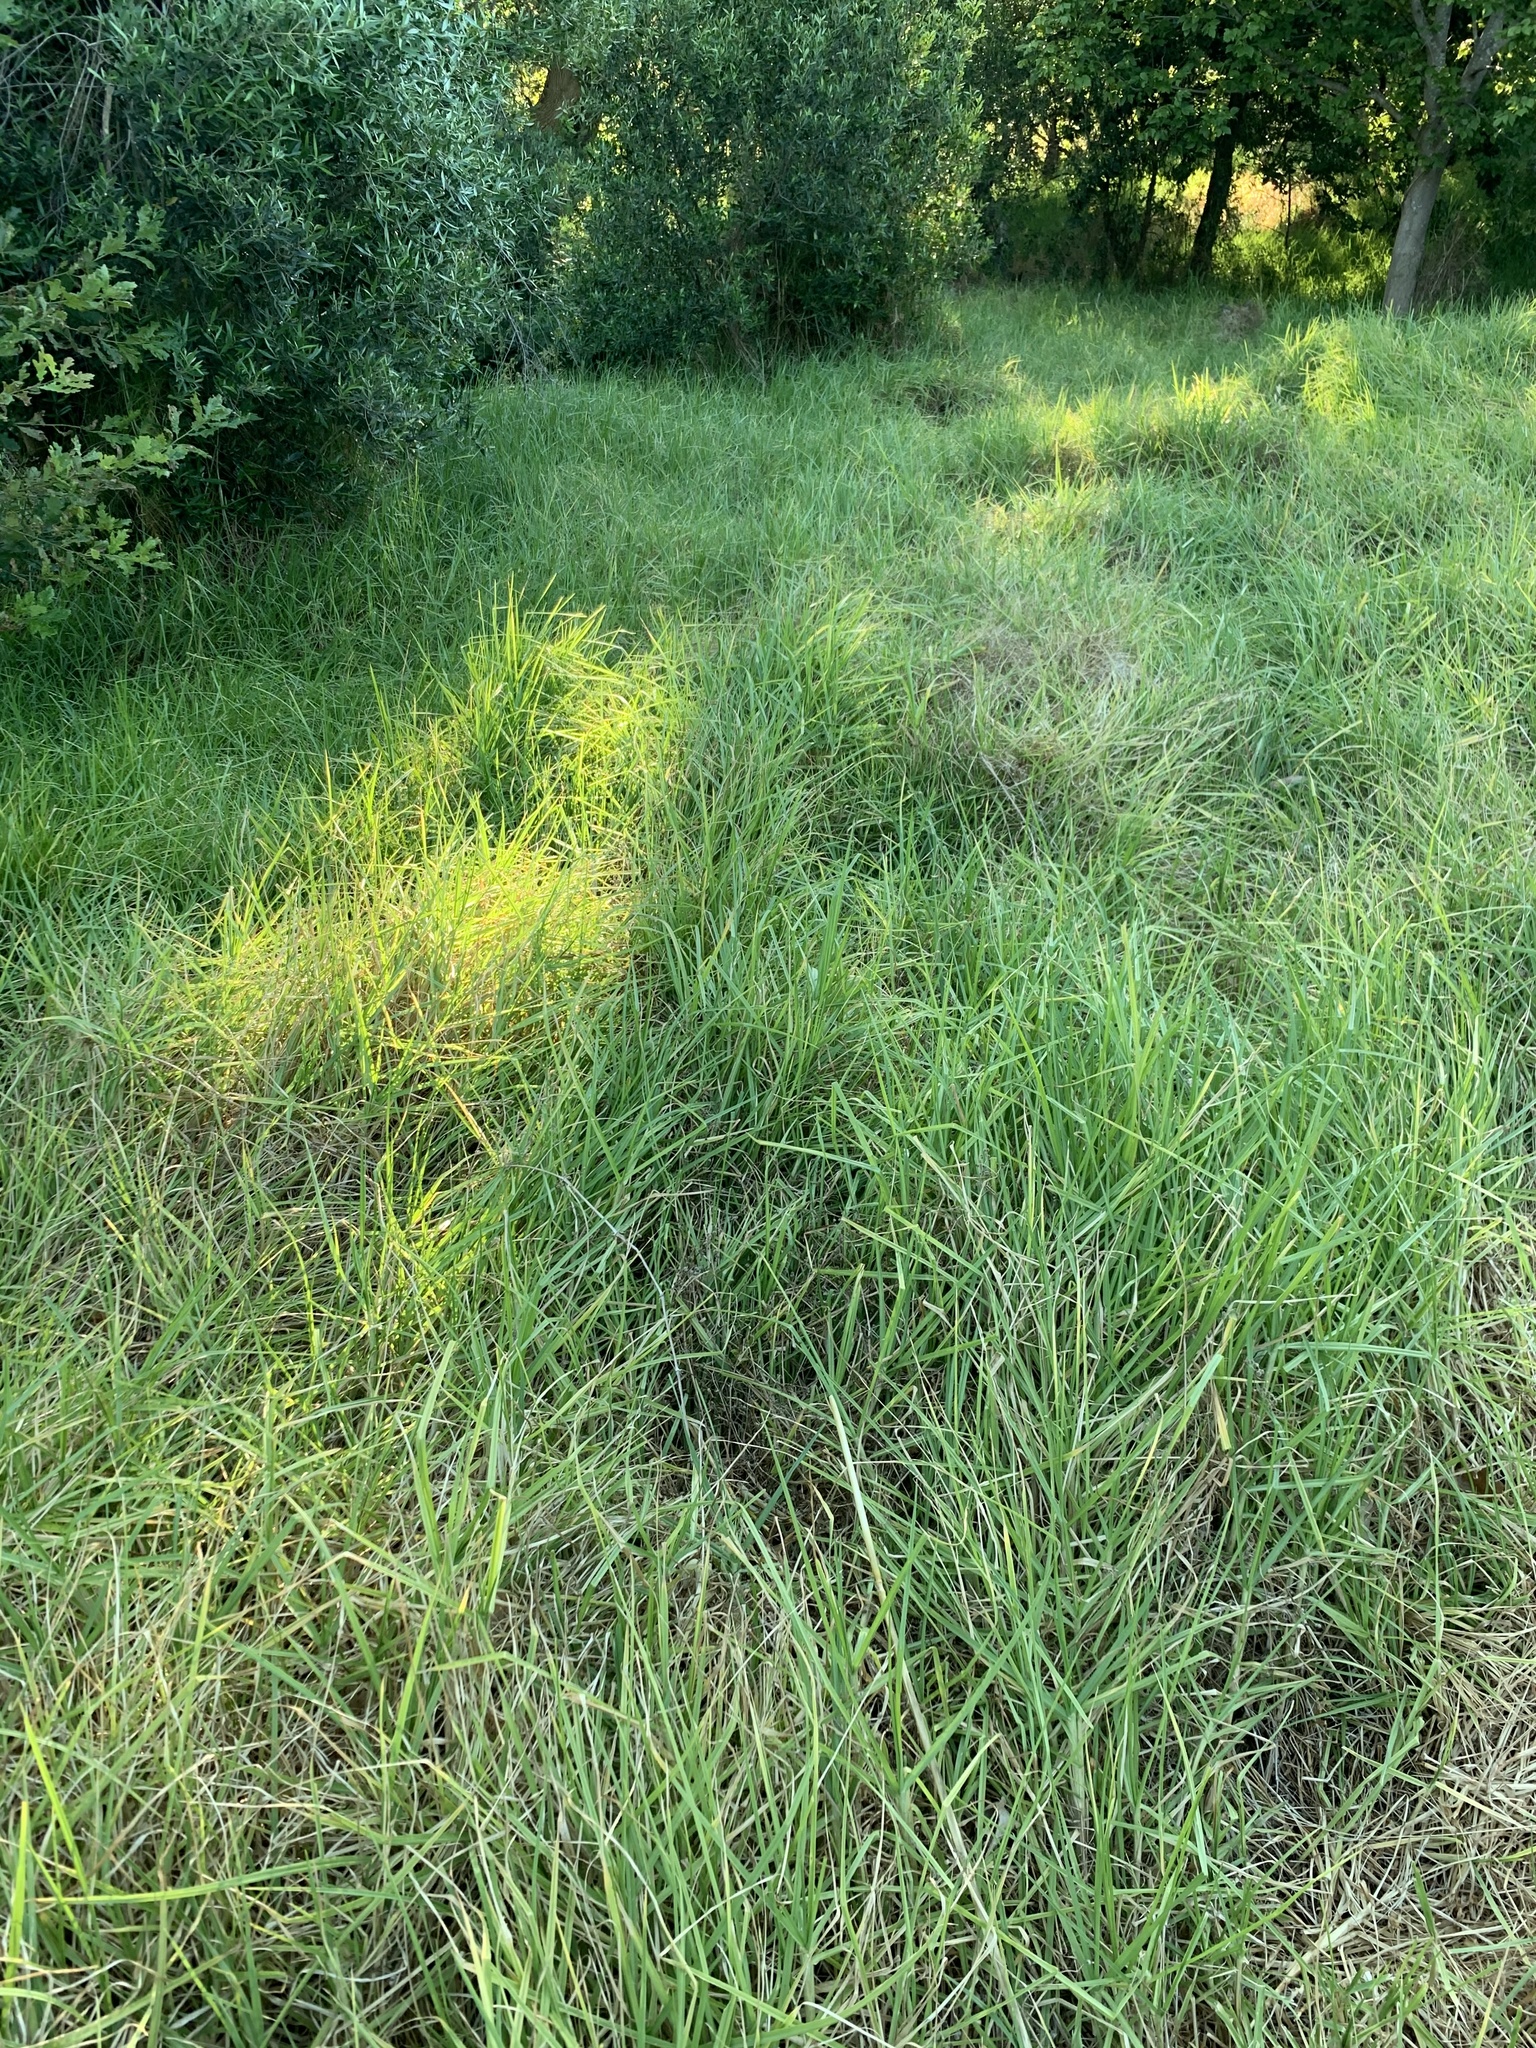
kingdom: Plantae
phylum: Tracheophyta
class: Liliopsida
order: Poales
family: Poaceae
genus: Cenchrus
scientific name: Cenchrus clandestinus
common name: Kikuyugrass
